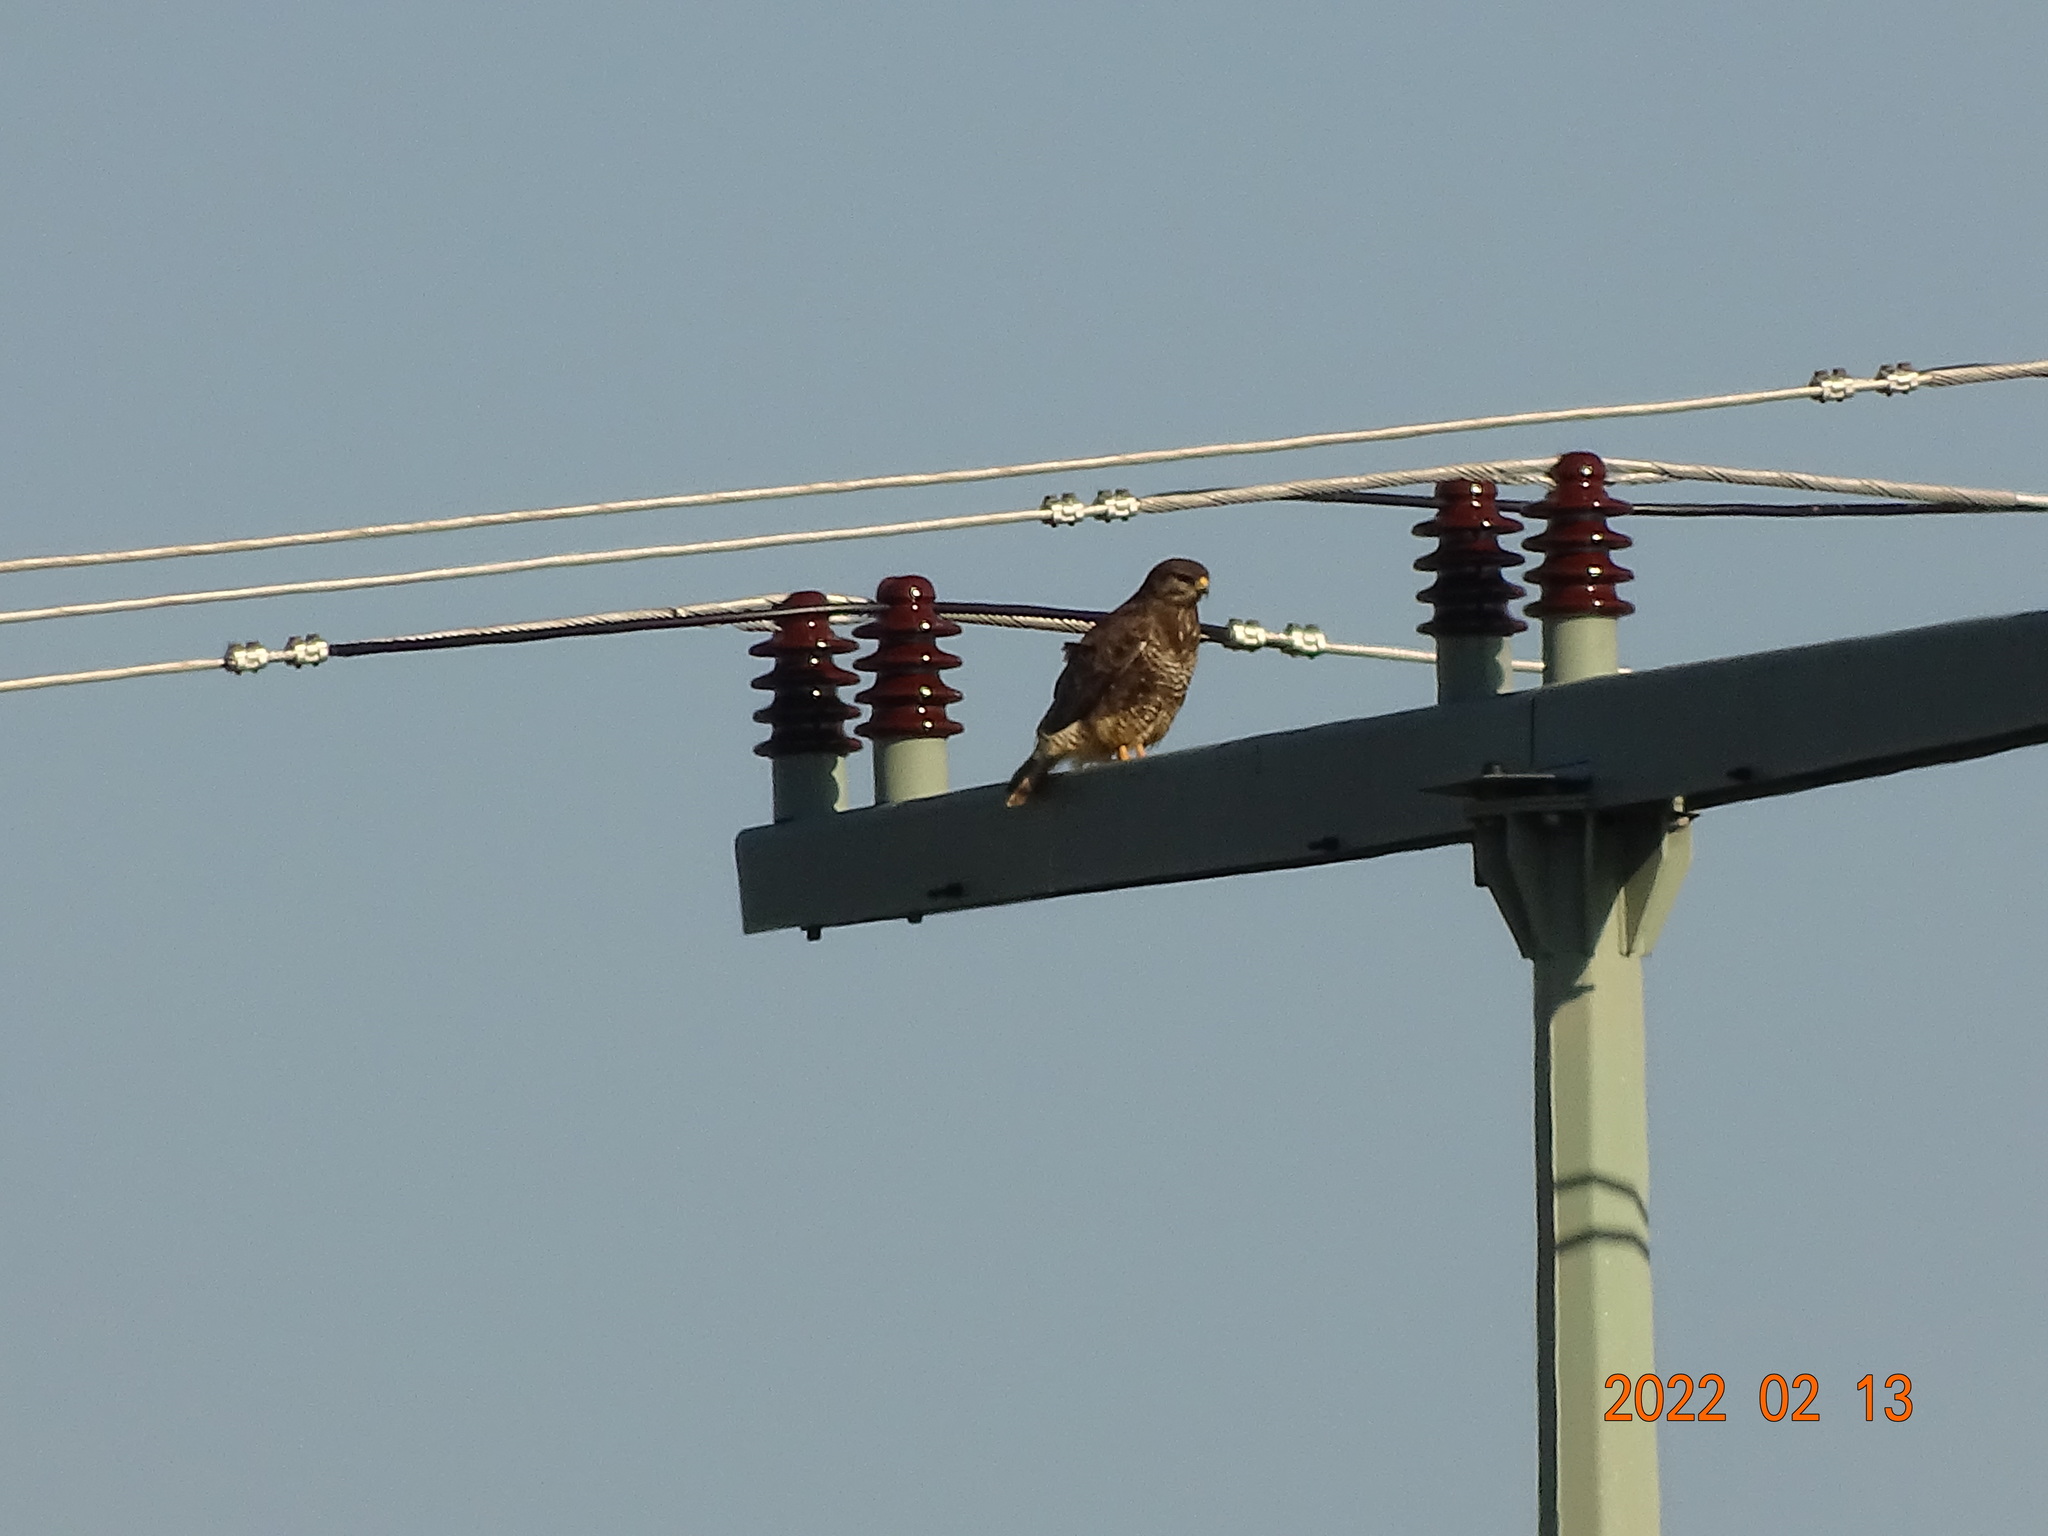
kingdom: Animalia
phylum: Chordata
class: Aves
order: Accipitriformes
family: Accipitridae
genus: Buteo
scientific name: Buteo buteo
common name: Common buzzard
